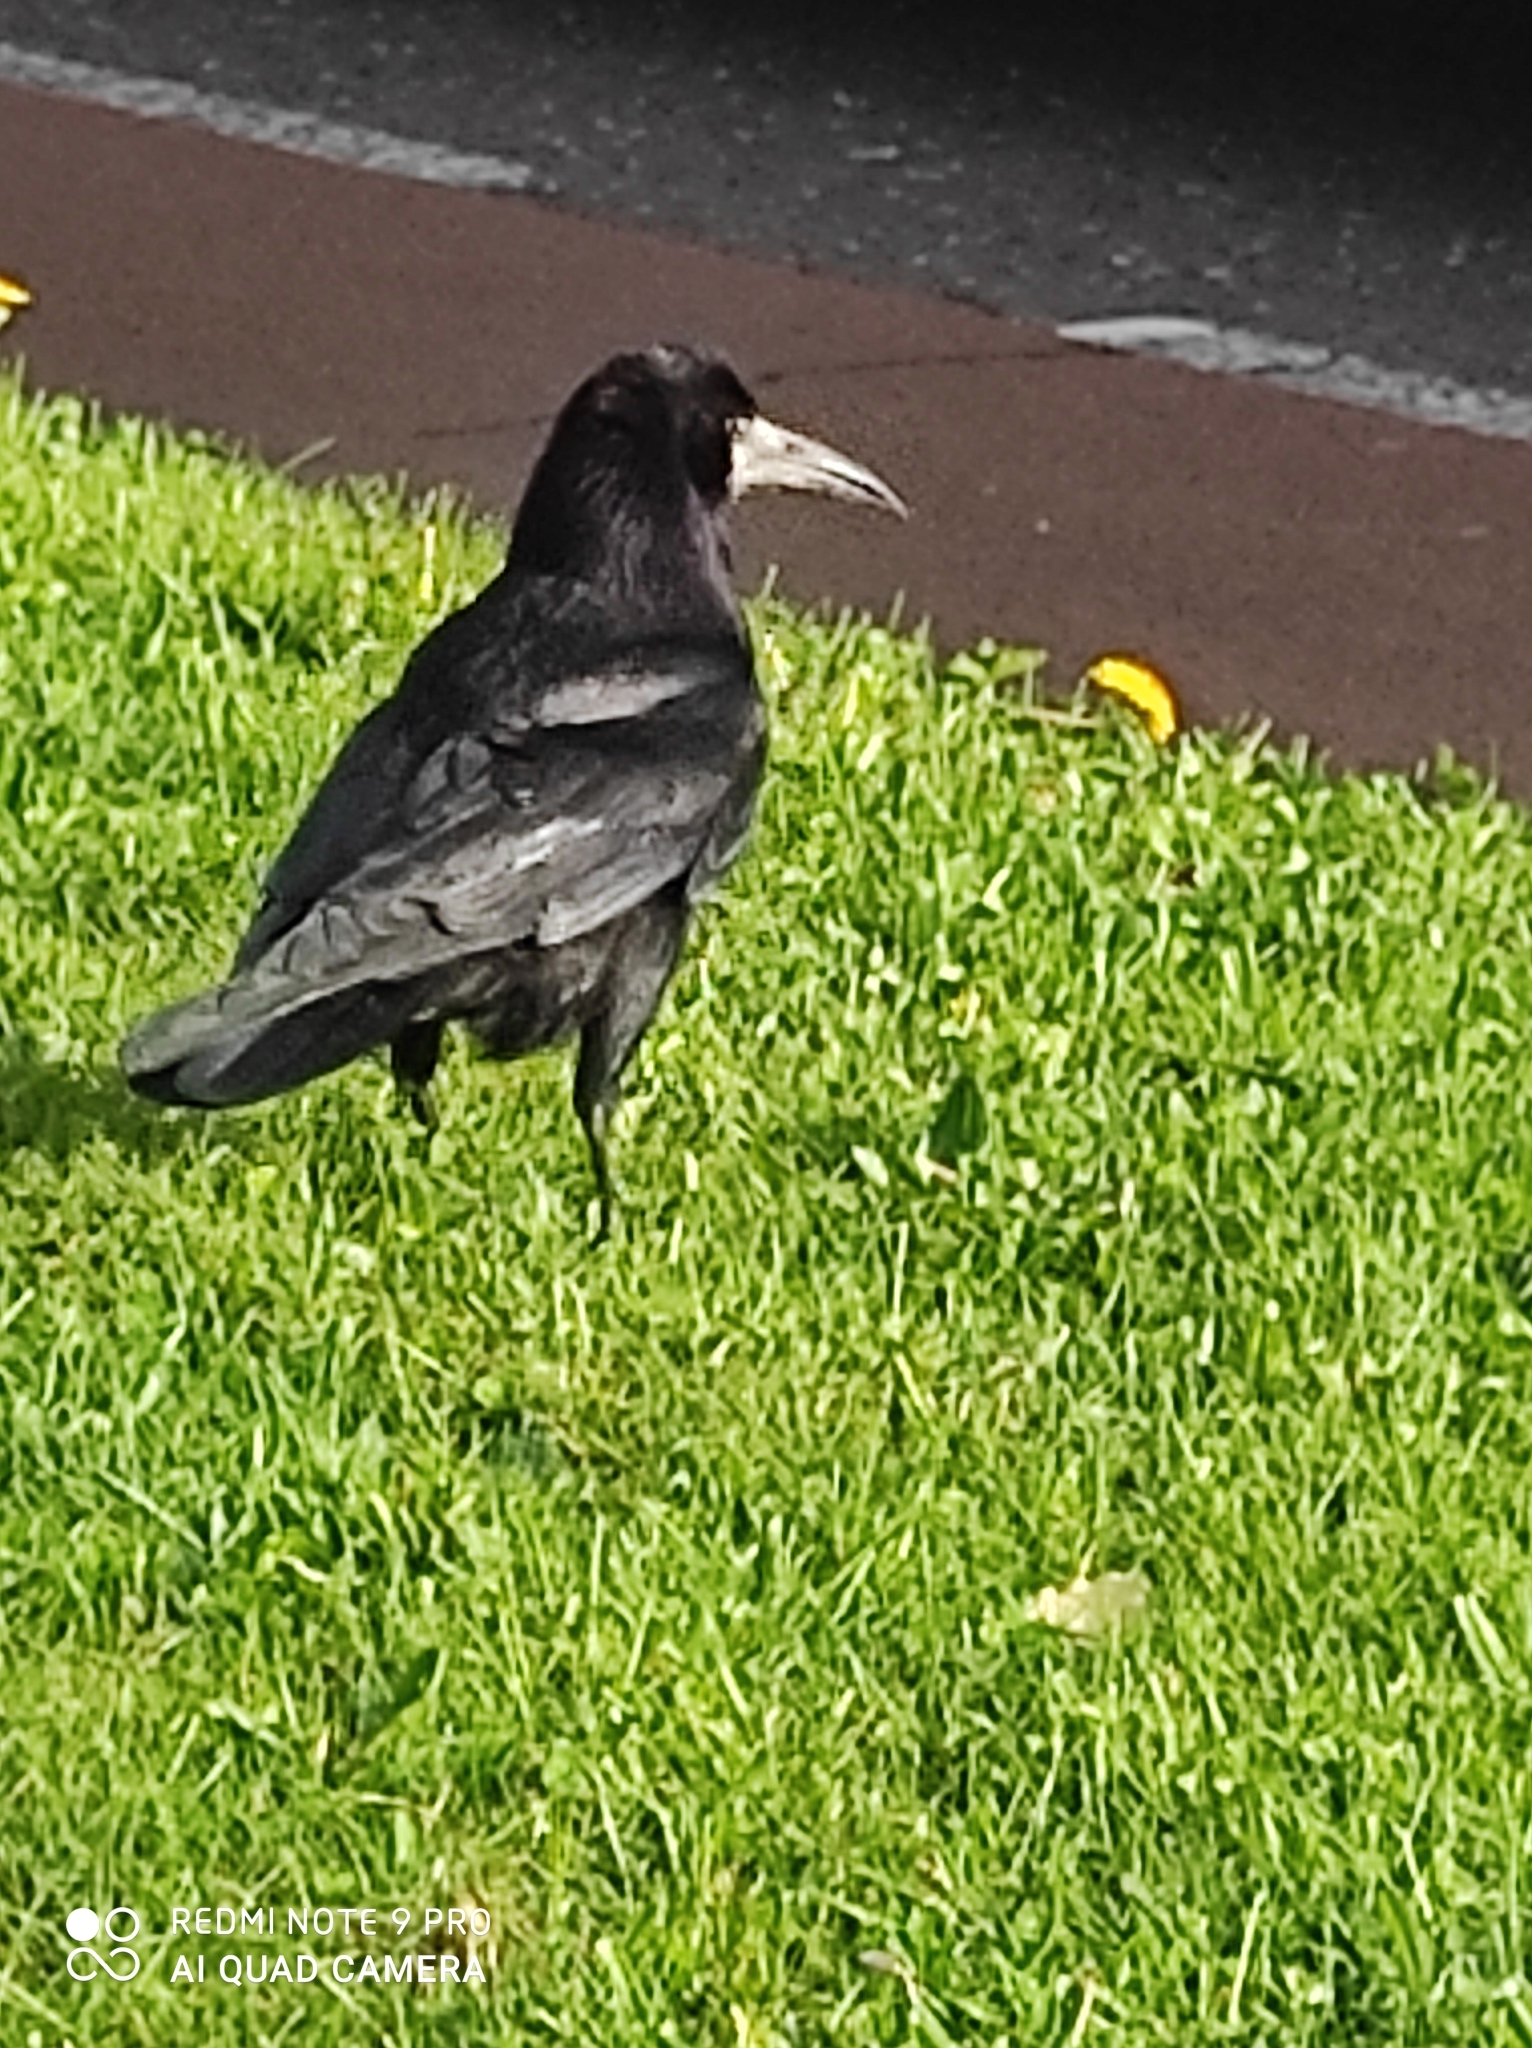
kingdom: Animalia
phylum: Chordata
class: Aves
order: Passeriformes
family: Corvidae
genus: Corvus
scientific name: Corvus frugilegus
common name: Rook
